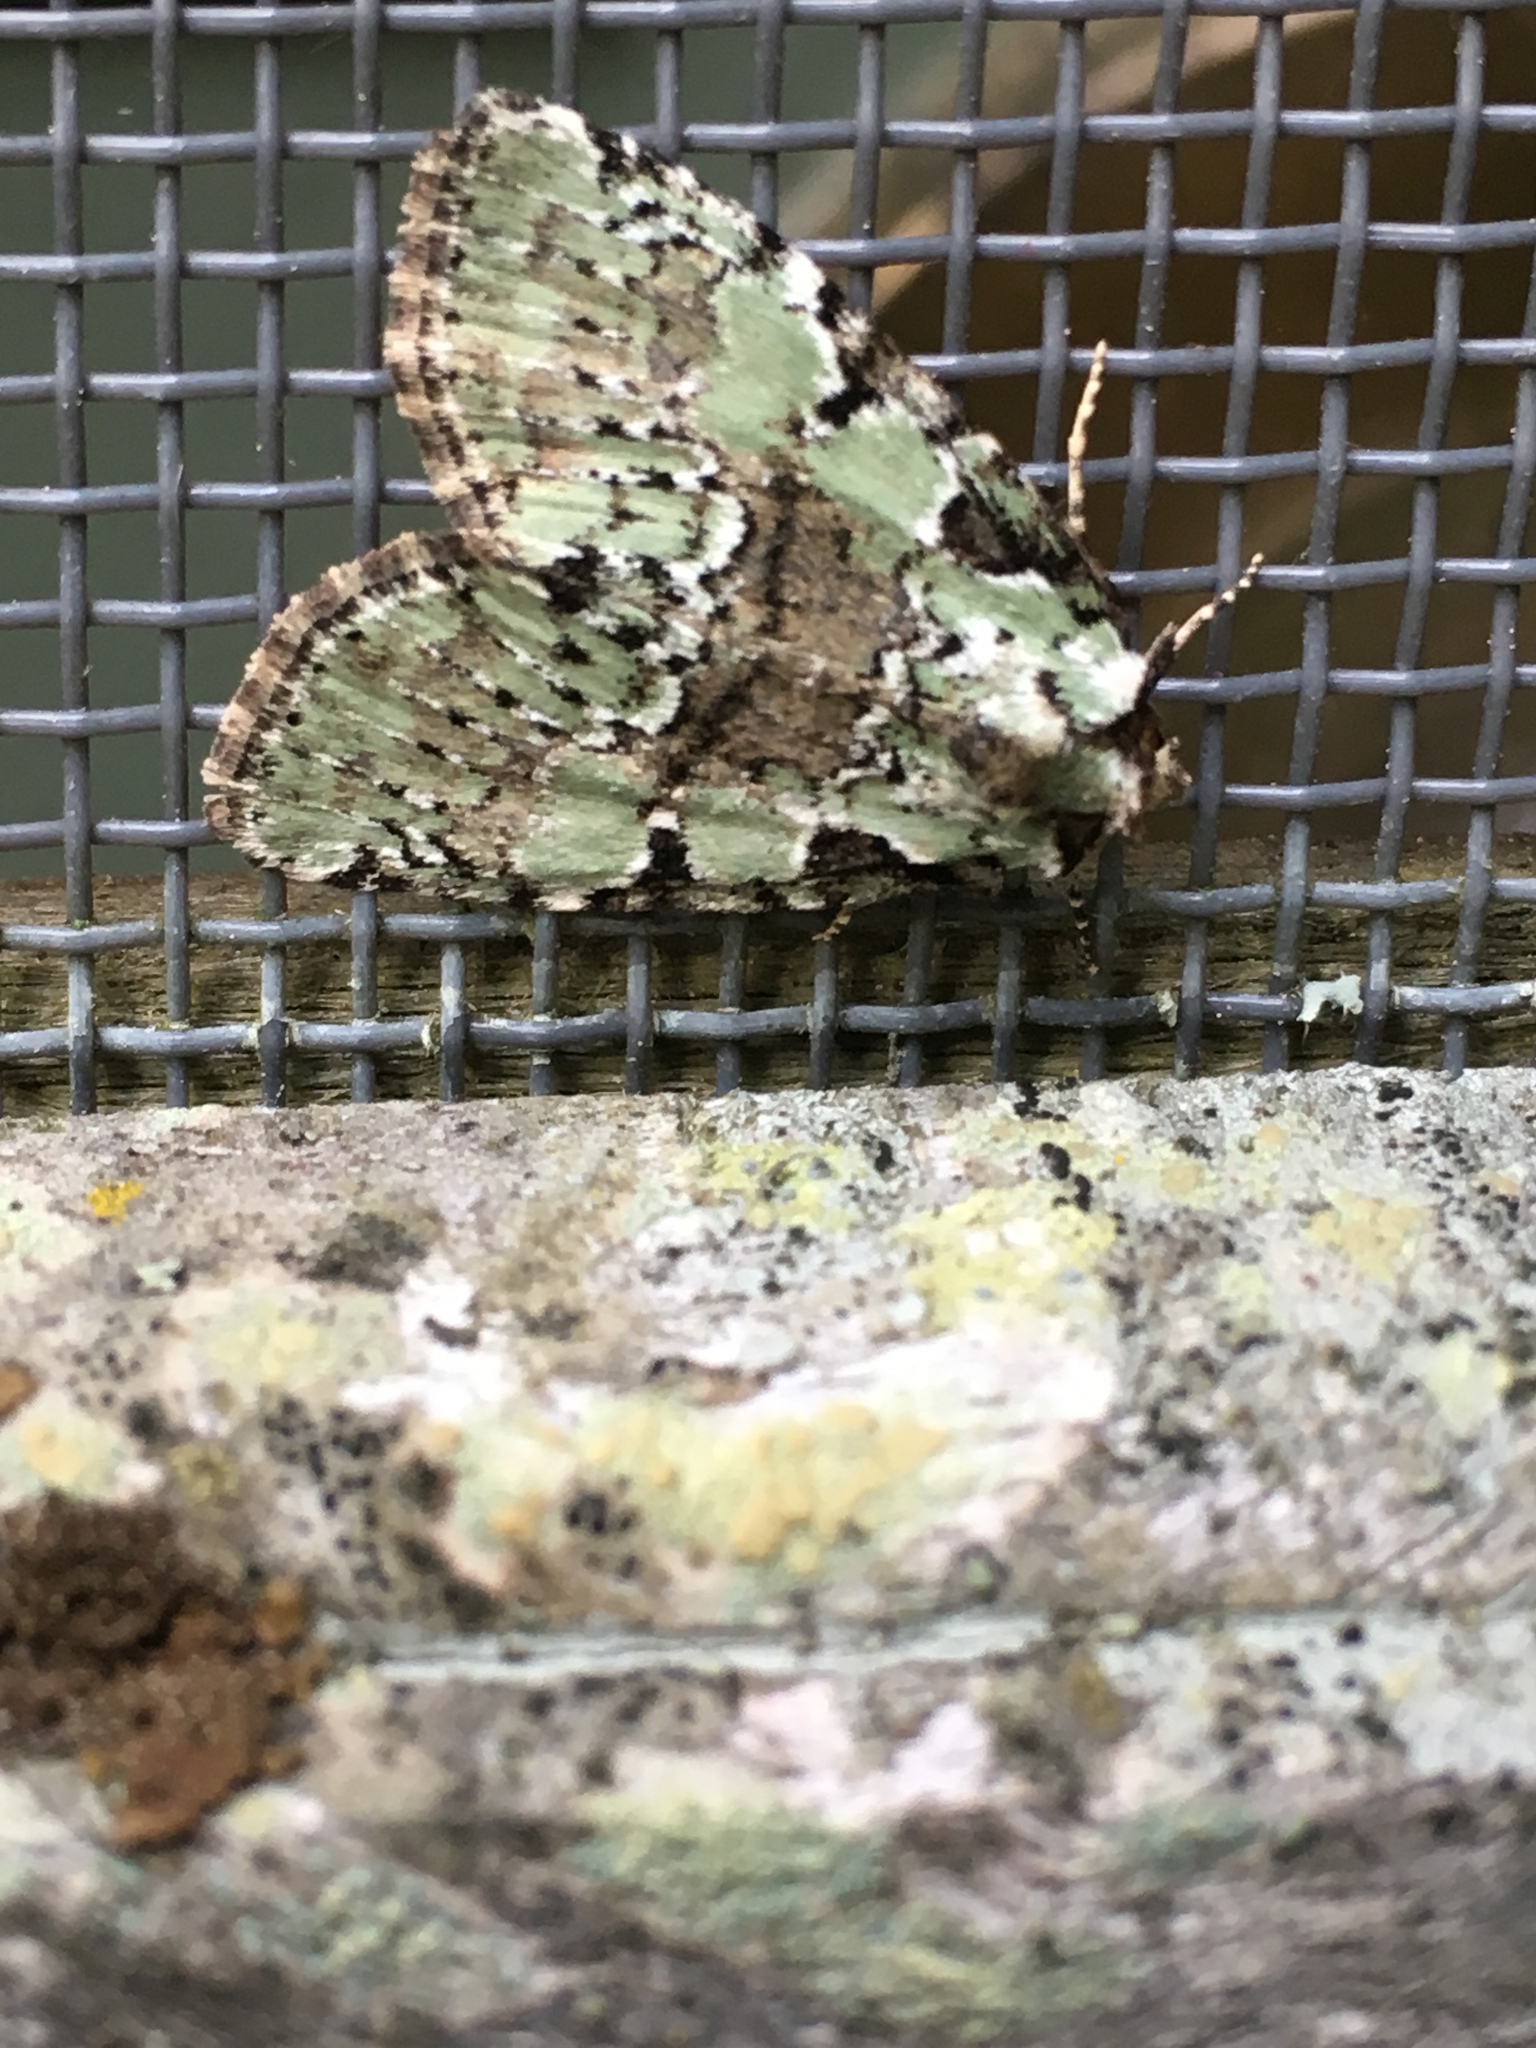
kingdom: Animalia
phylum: Arthropoda
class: Insecta
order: Lepidoptera
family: Noctuidae
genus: Leuconycta
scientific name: Leuconycta lepidula
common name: Marbled-green leuconycta moth
